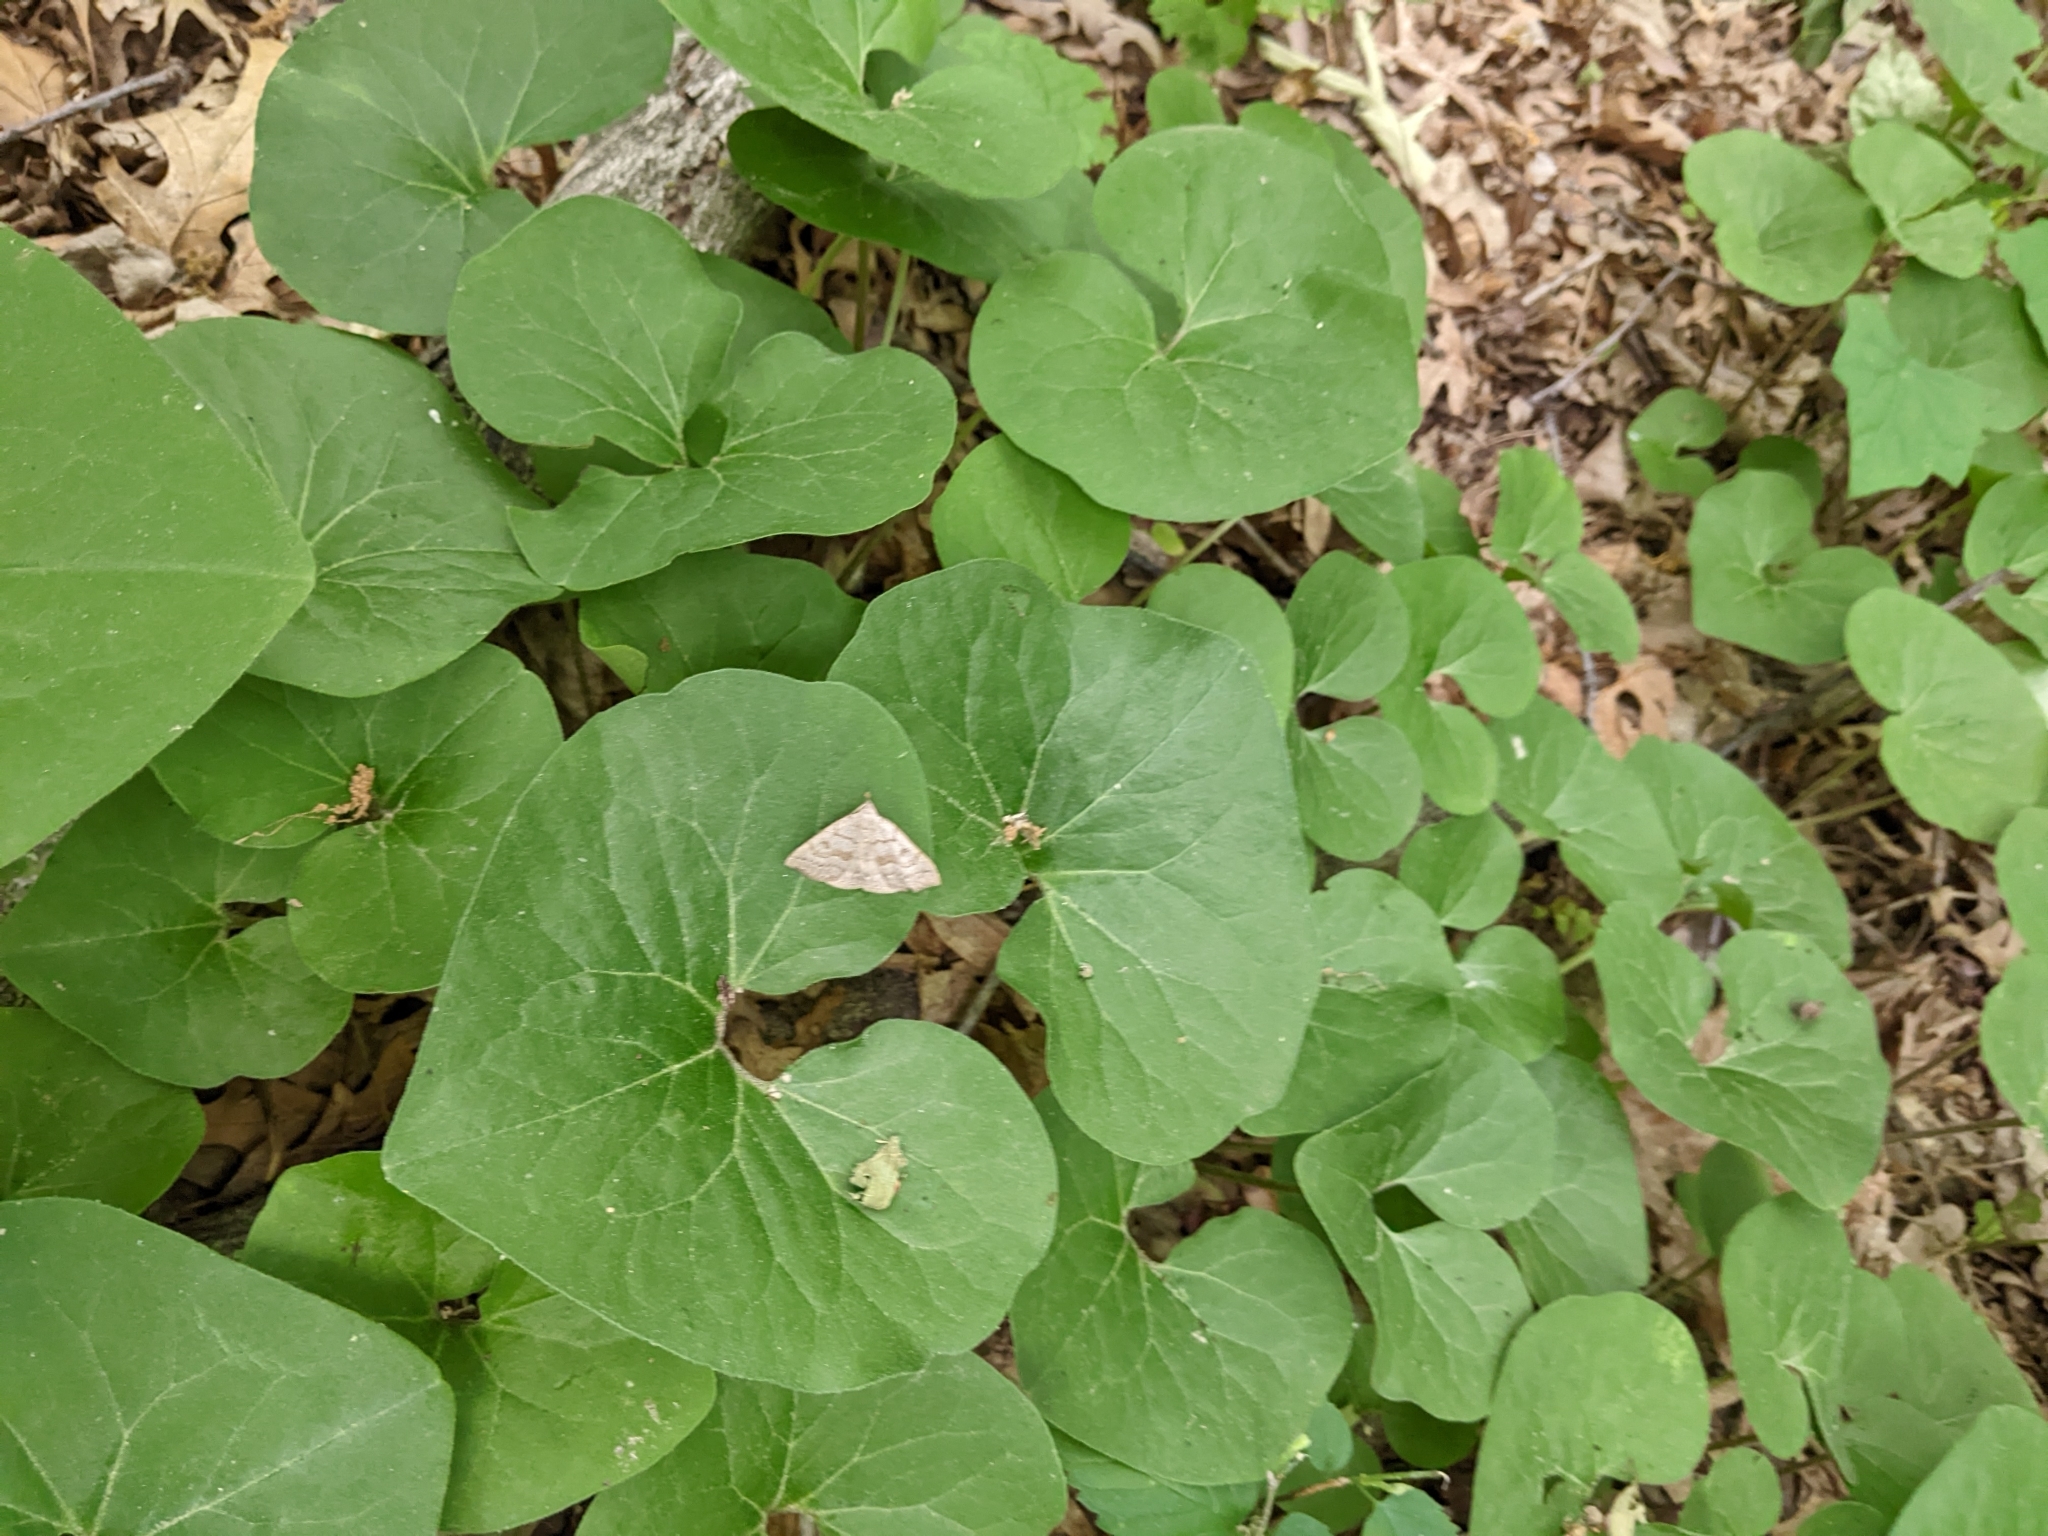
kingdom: Animalia
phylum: Arthropoda
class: Insecta
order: Lepidoptera
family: Erebidae
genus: Macrochilo
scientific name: Macrochilo morbidalis
